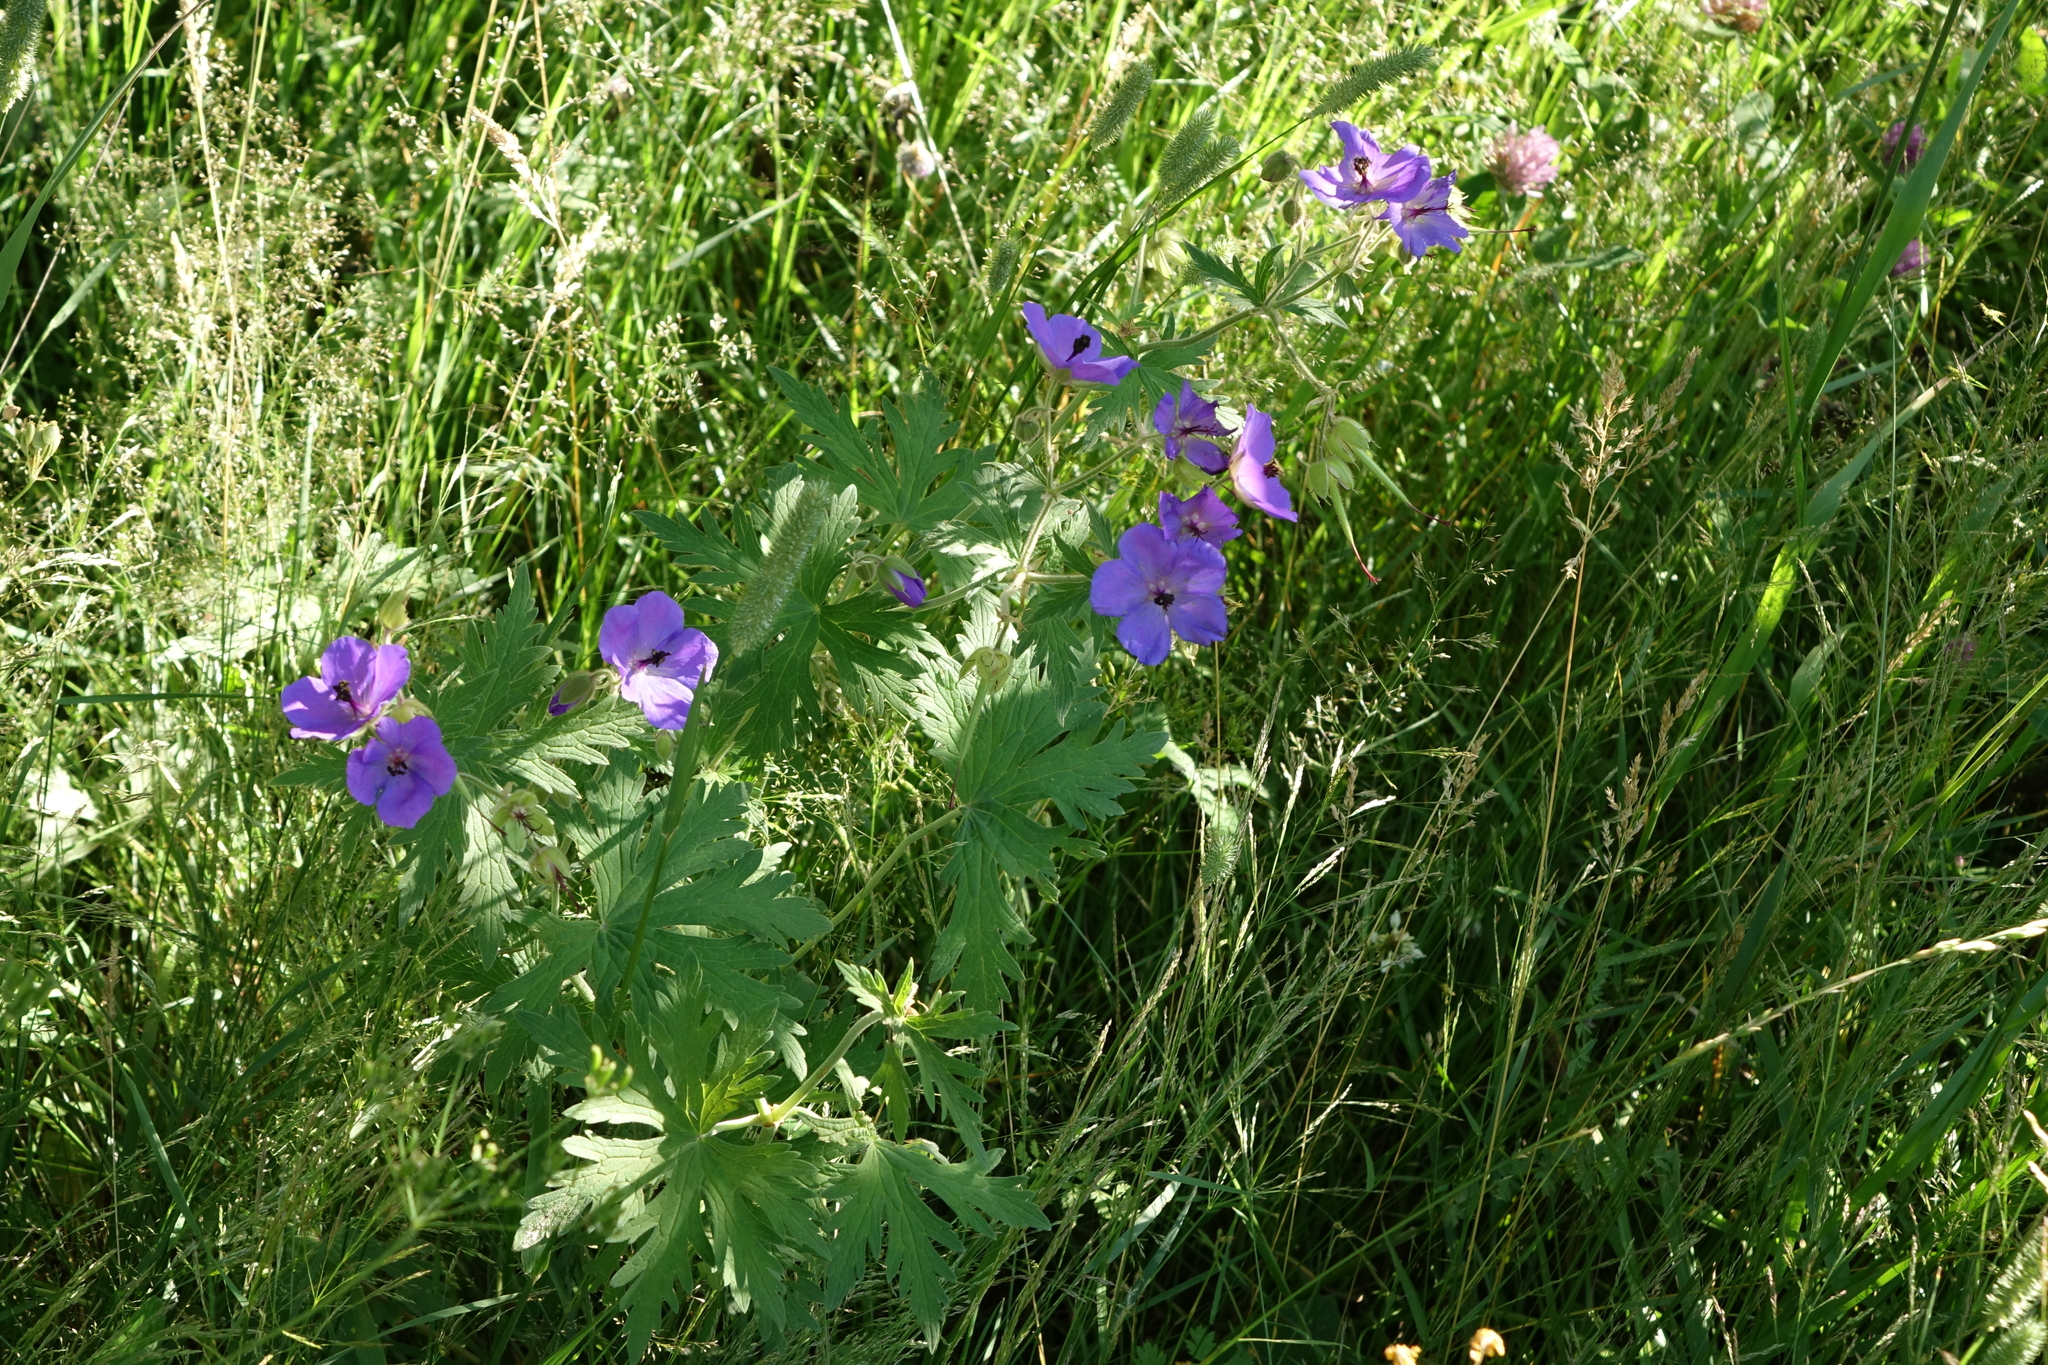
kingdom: Plantae
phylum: Tracheophyta
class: Magnoliopsida
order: Geraniales
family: Geraniaceae
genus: Geranium
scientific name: Geranium pratense
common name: Meadow crane's-bill
